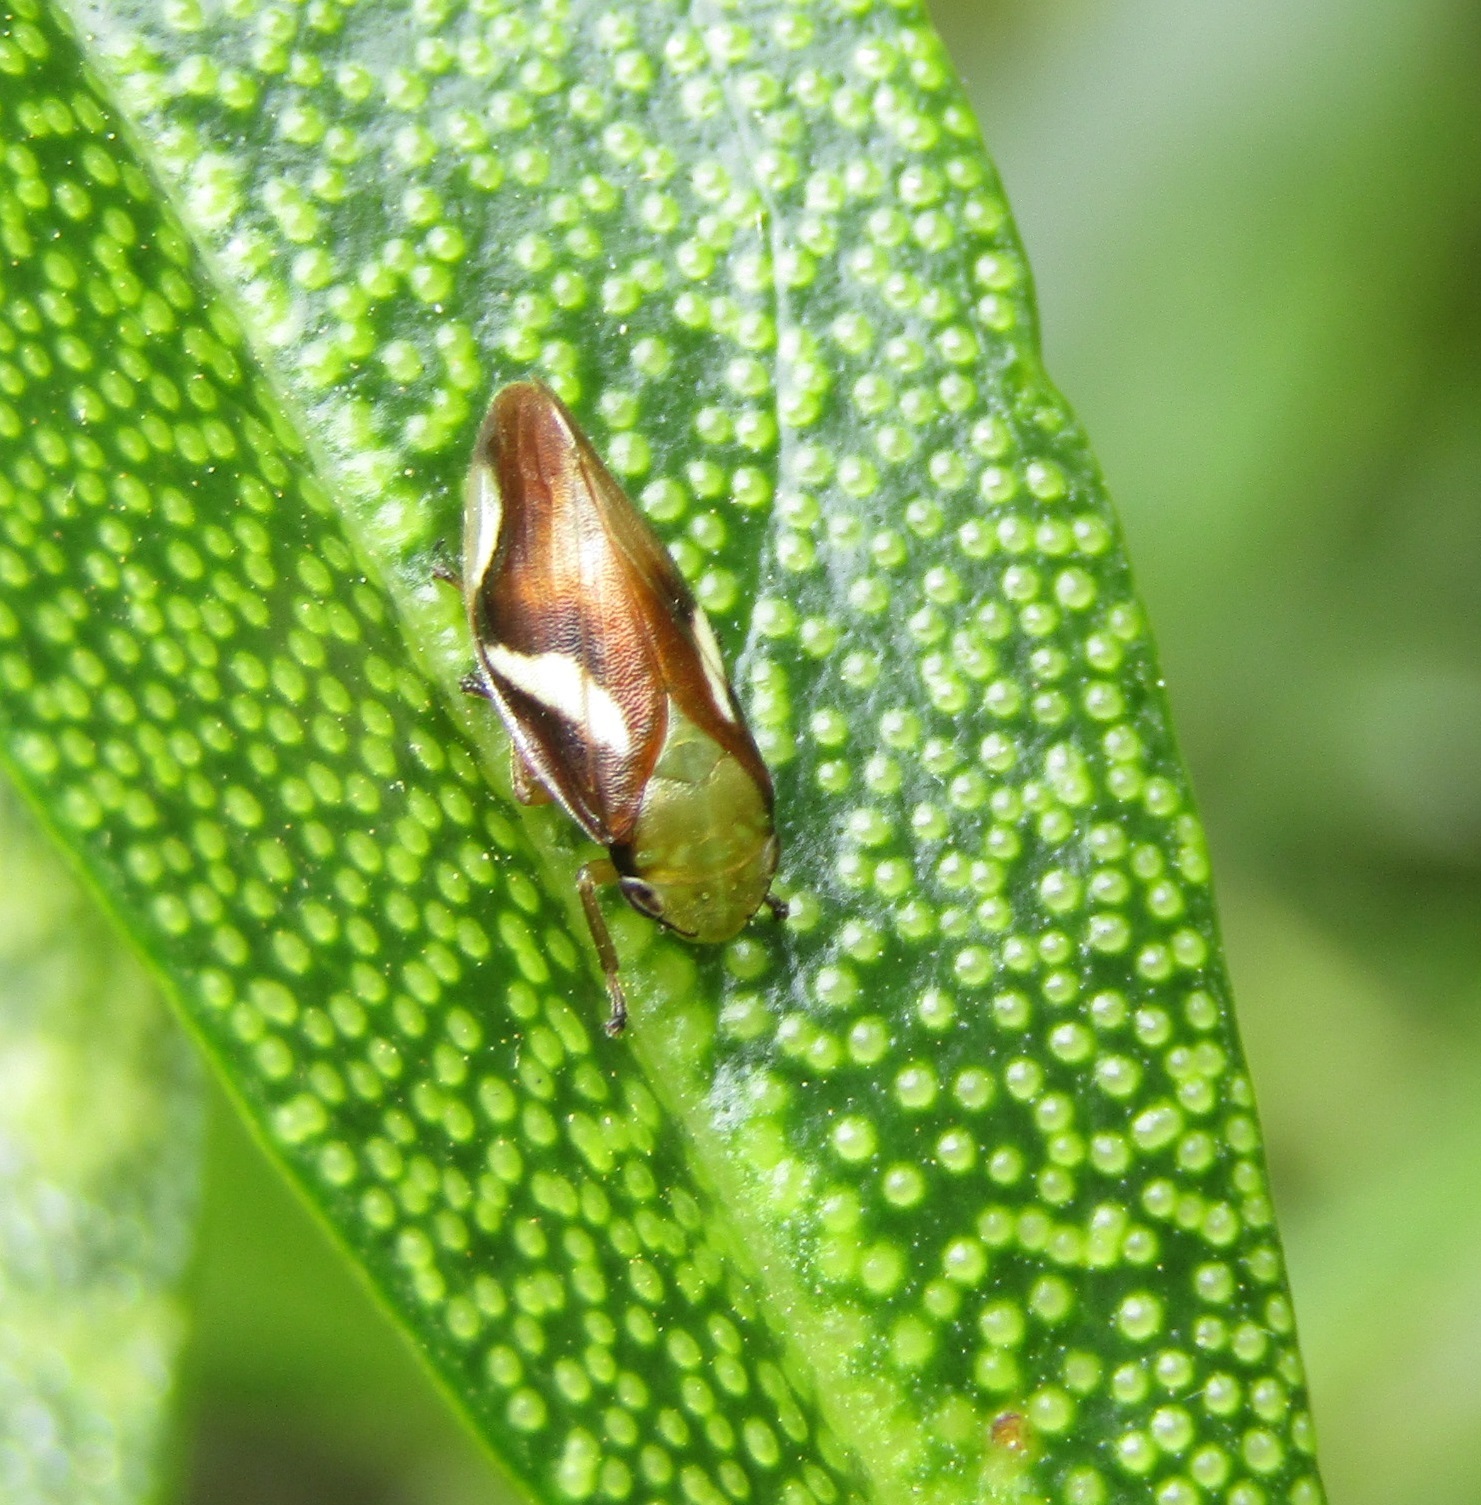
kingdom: Animalia
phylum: Arthropoda
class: Insecta
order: Hemiptera
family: Aphrophoridae
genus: Carystoterpa
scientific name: Carystoterpa fingens
